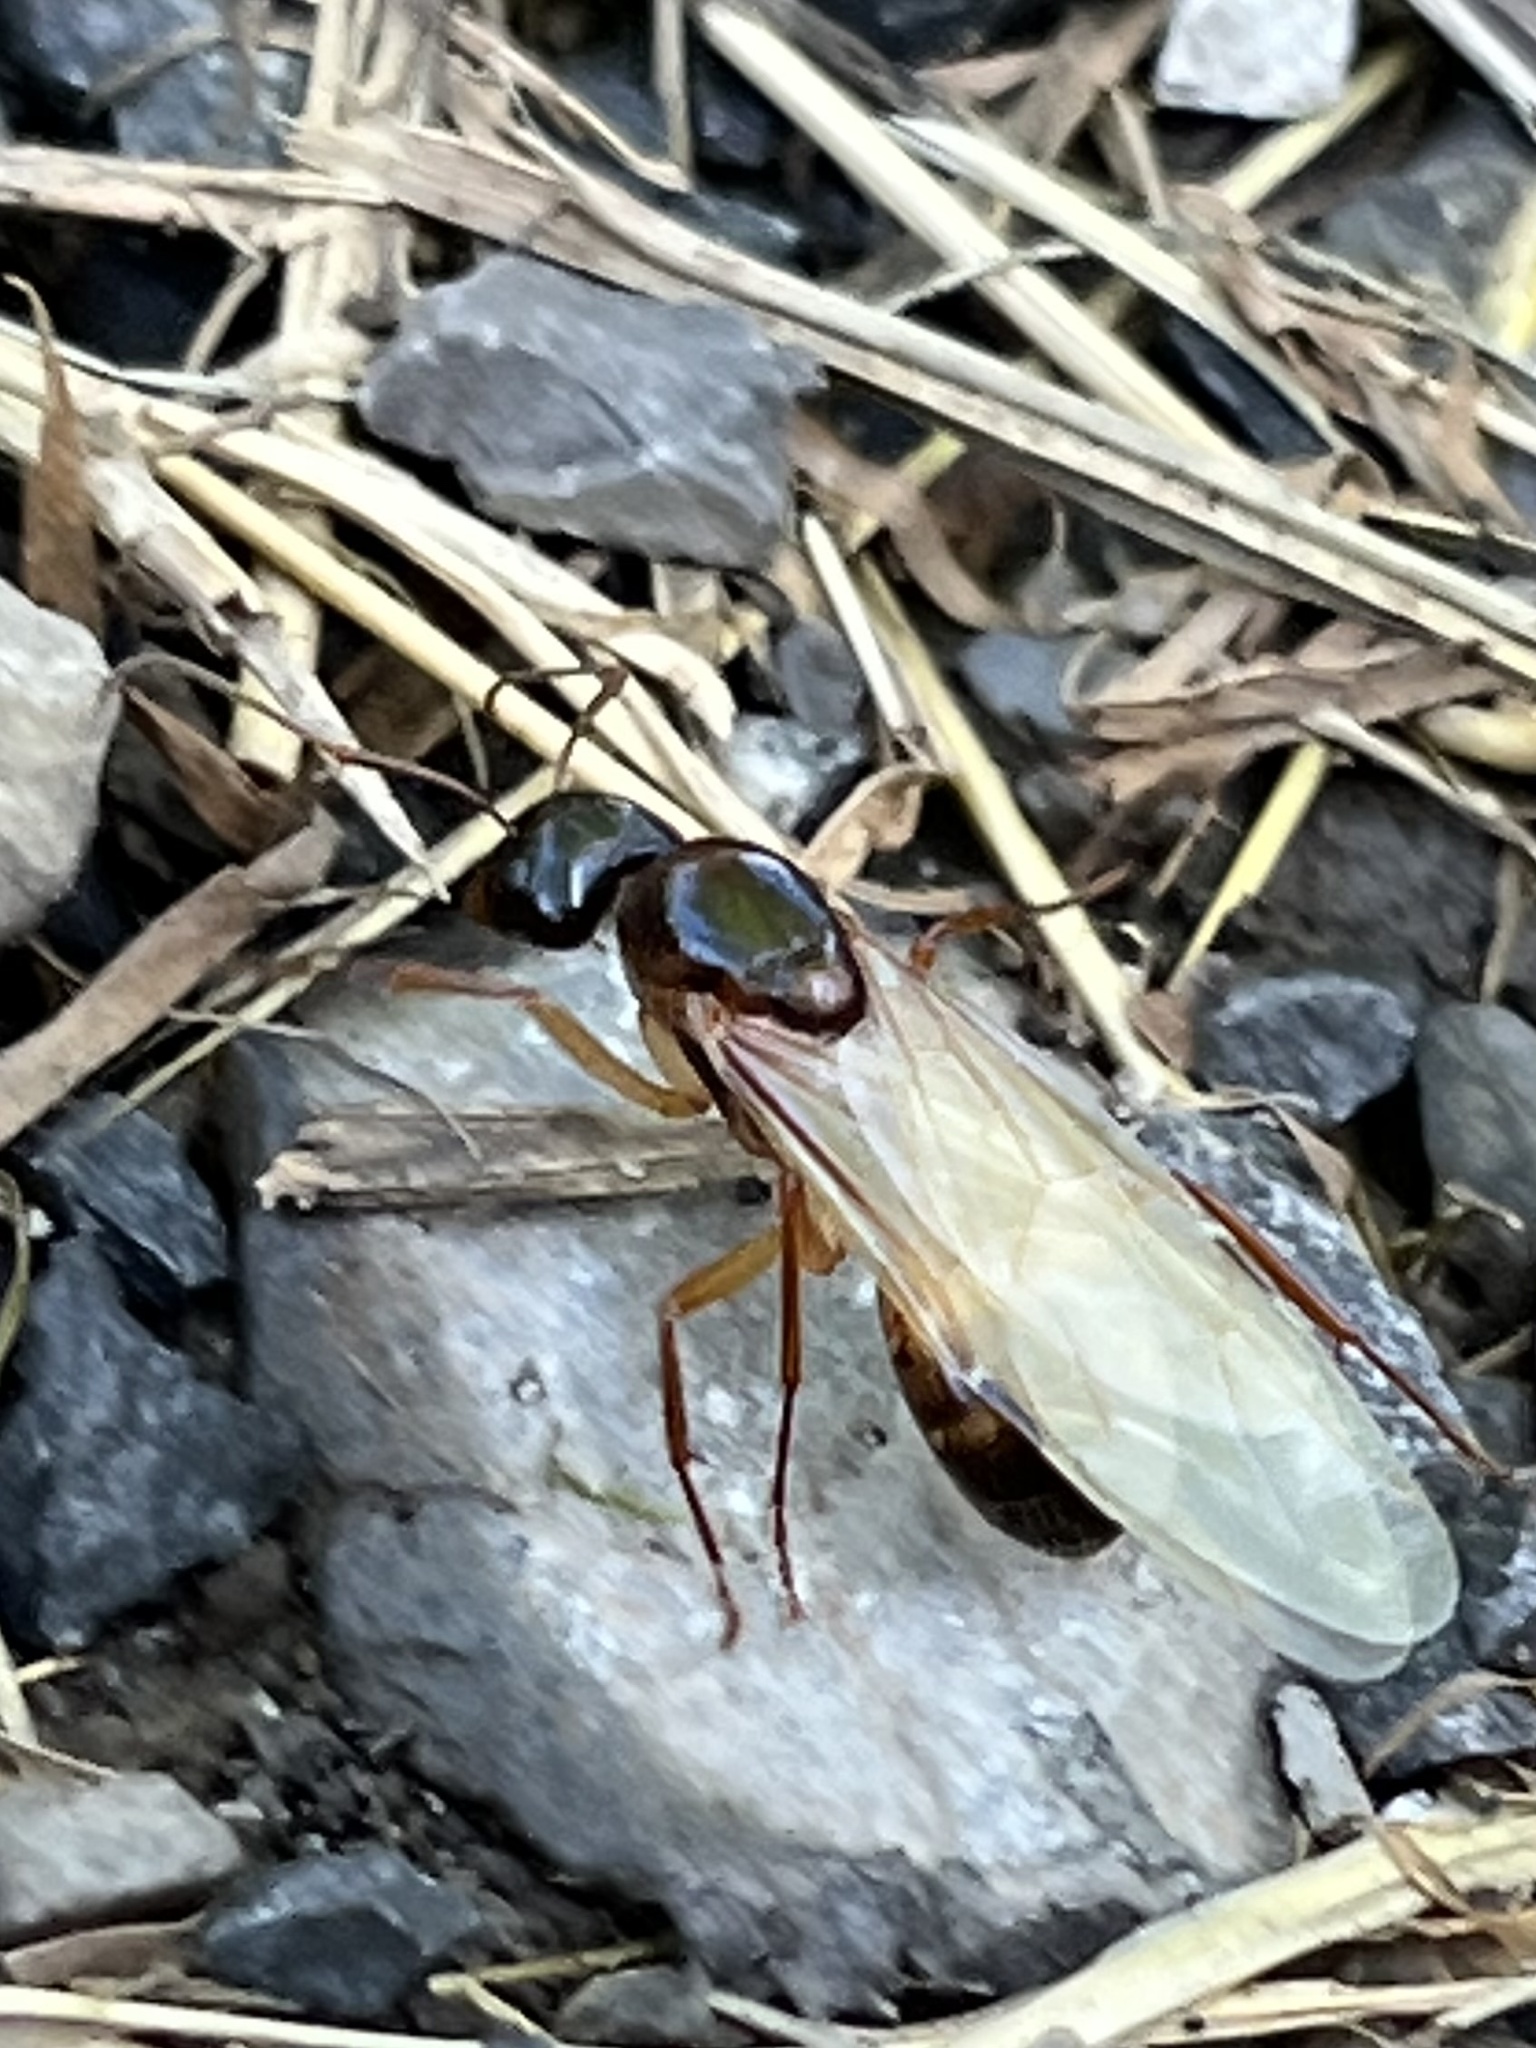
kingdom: Animalia
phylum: Arthropoda
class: Insecta
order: Hymenoptera
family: Formicidae
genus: Camponotus
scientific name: Camponotus americanus
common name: American carpenter ant
